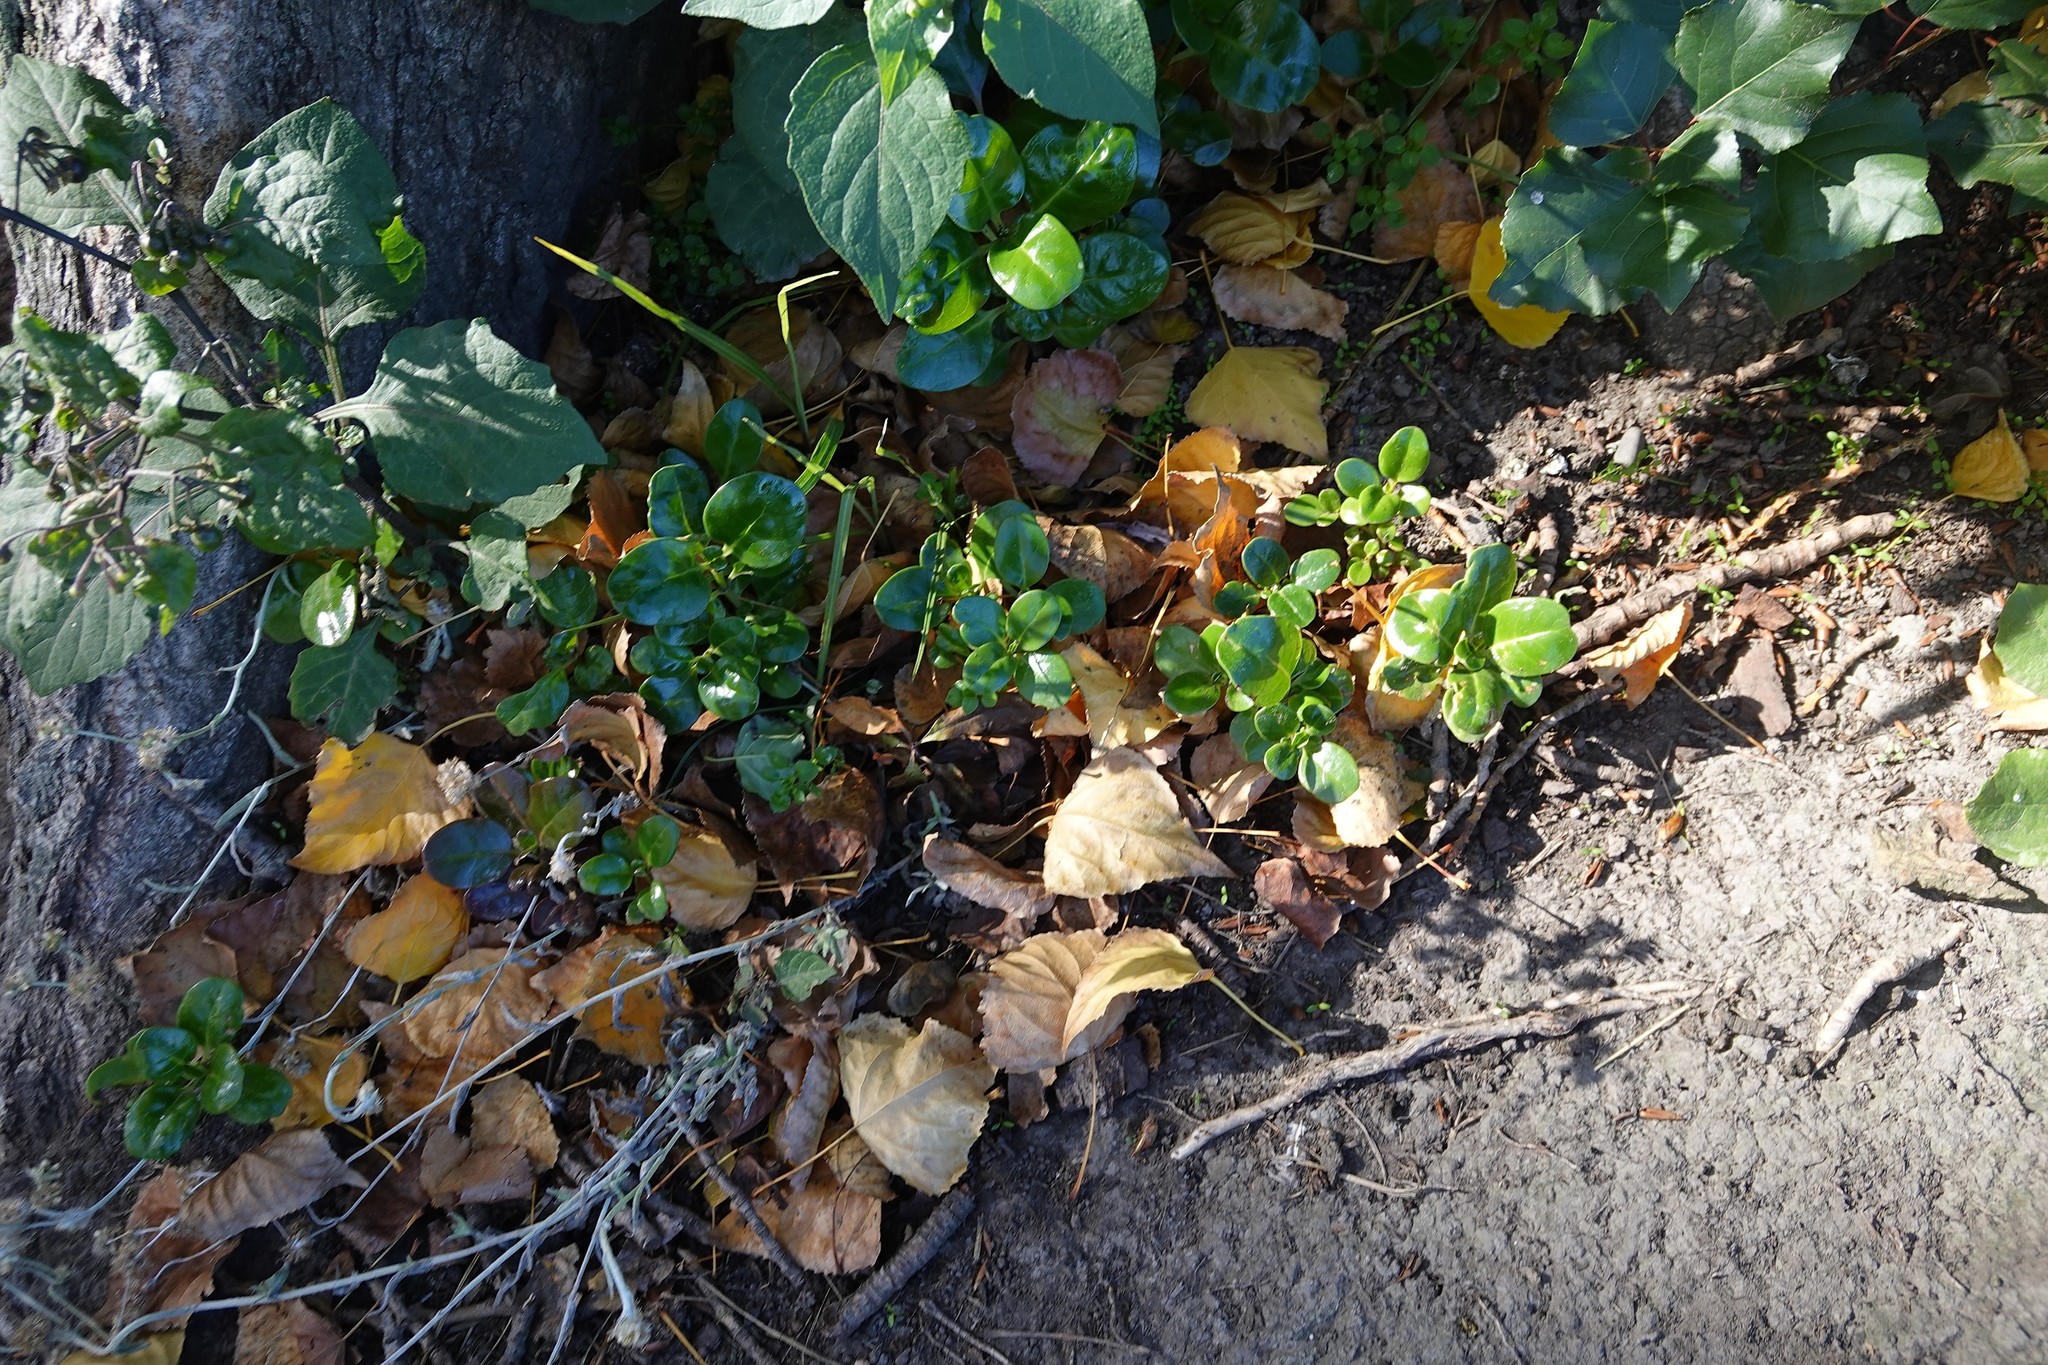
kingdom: Plantae
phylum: Tracheophyta
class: Magnoliopsida
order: Gentianales
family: Rubiaceae
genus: Coprosma
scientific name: Coprosma repens
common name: Tree bedstraw
